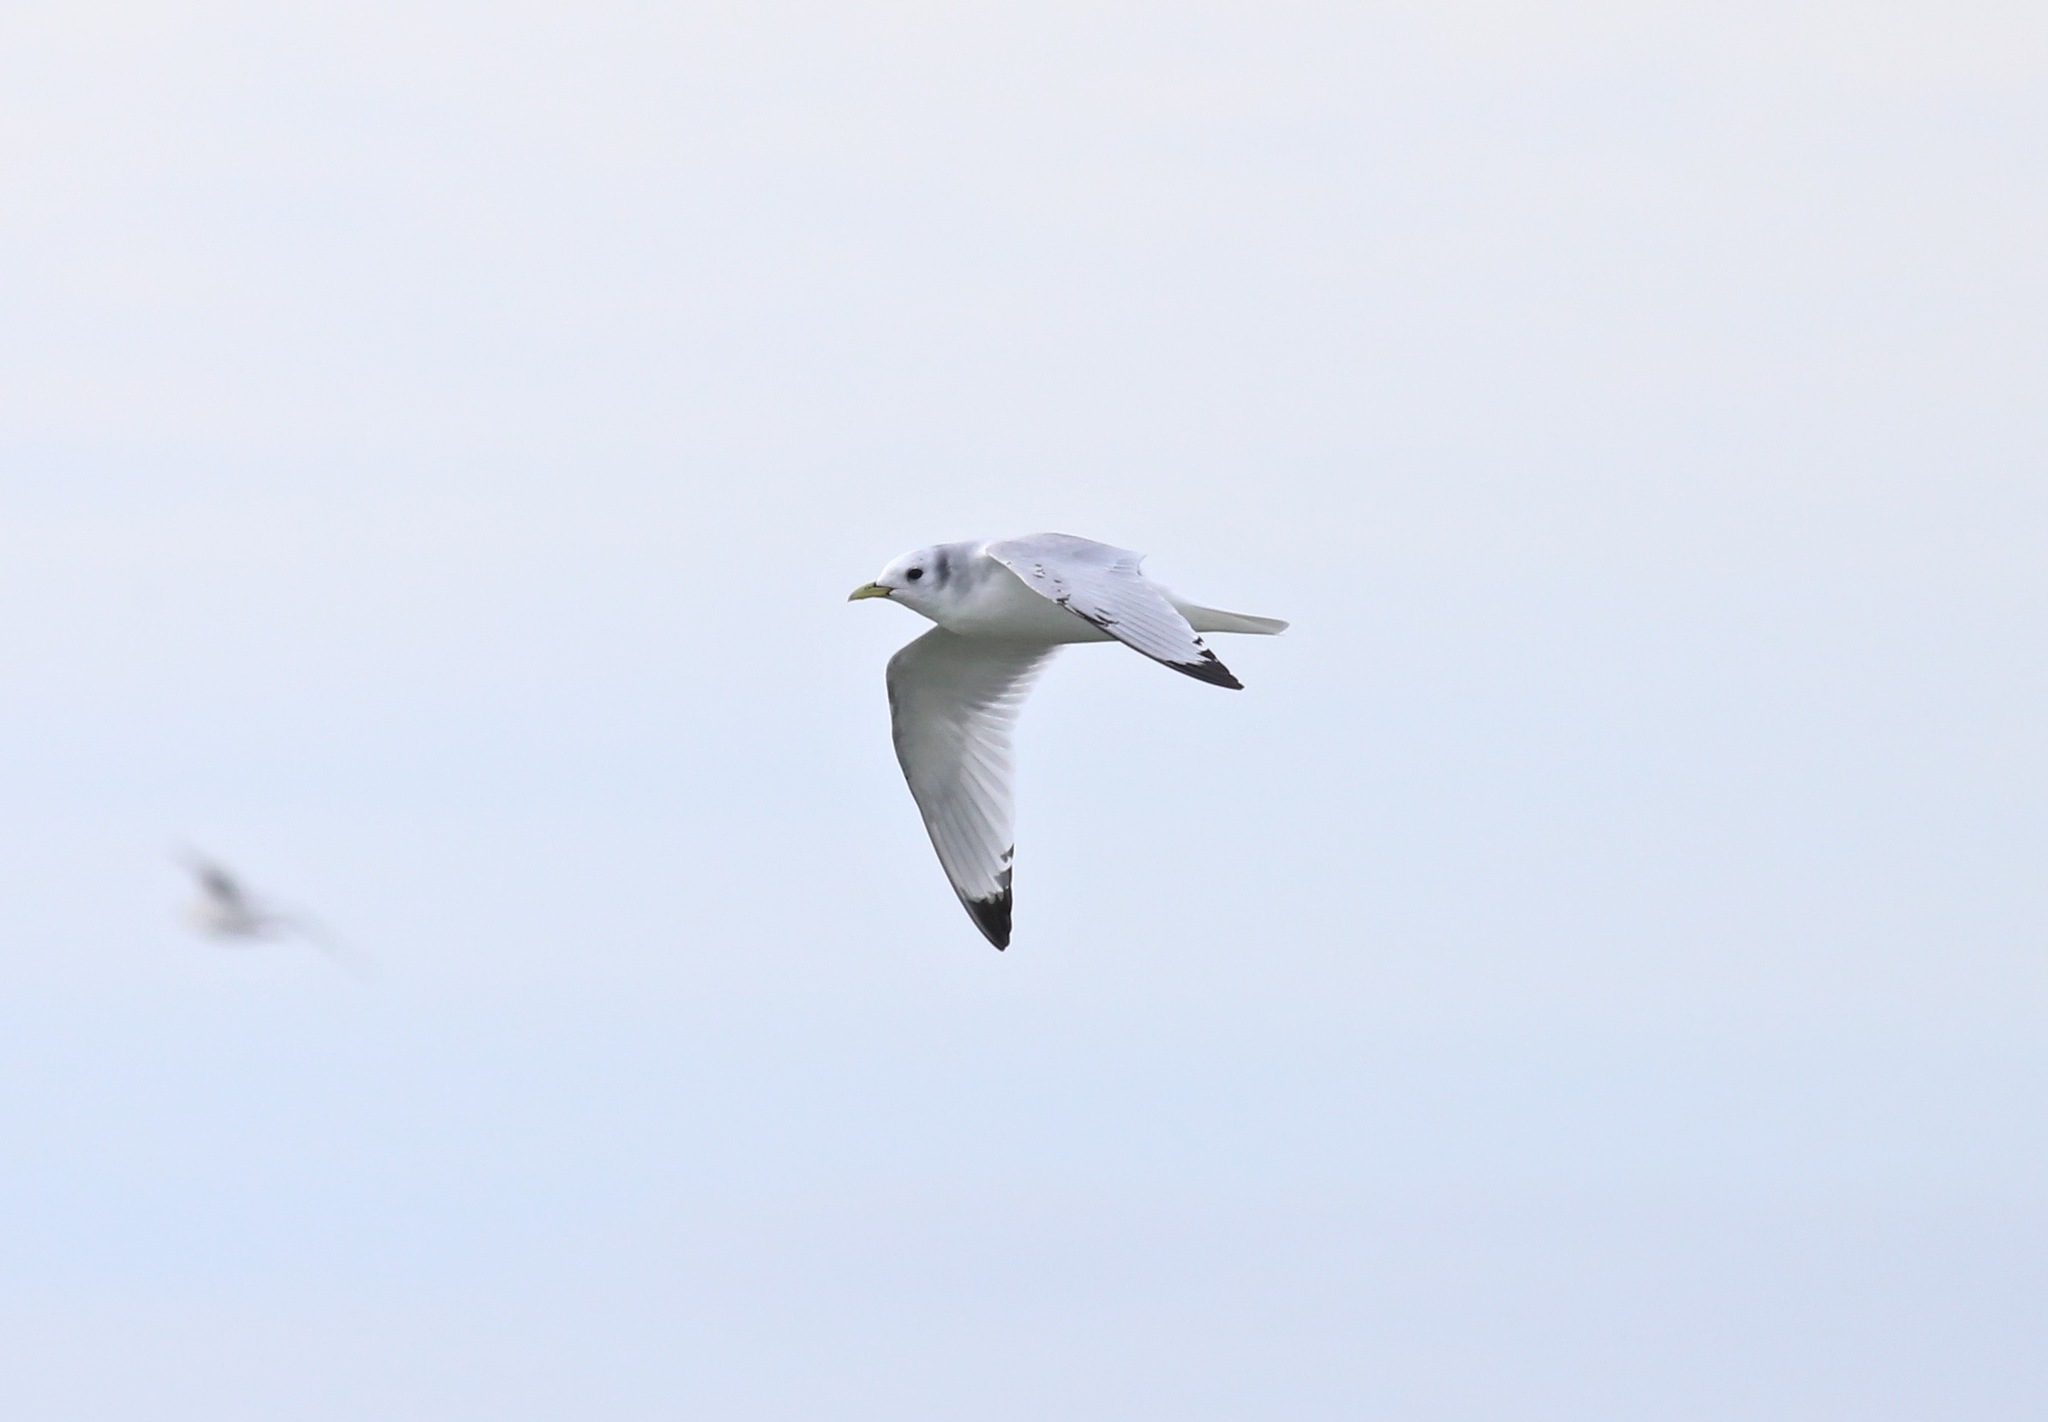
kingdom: Animalia
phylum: Chordata
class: Aves
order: Charadriiformes
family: Laridae
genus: Rissa
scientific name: Rissa tridactyla
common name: Black-legged kittiwake
